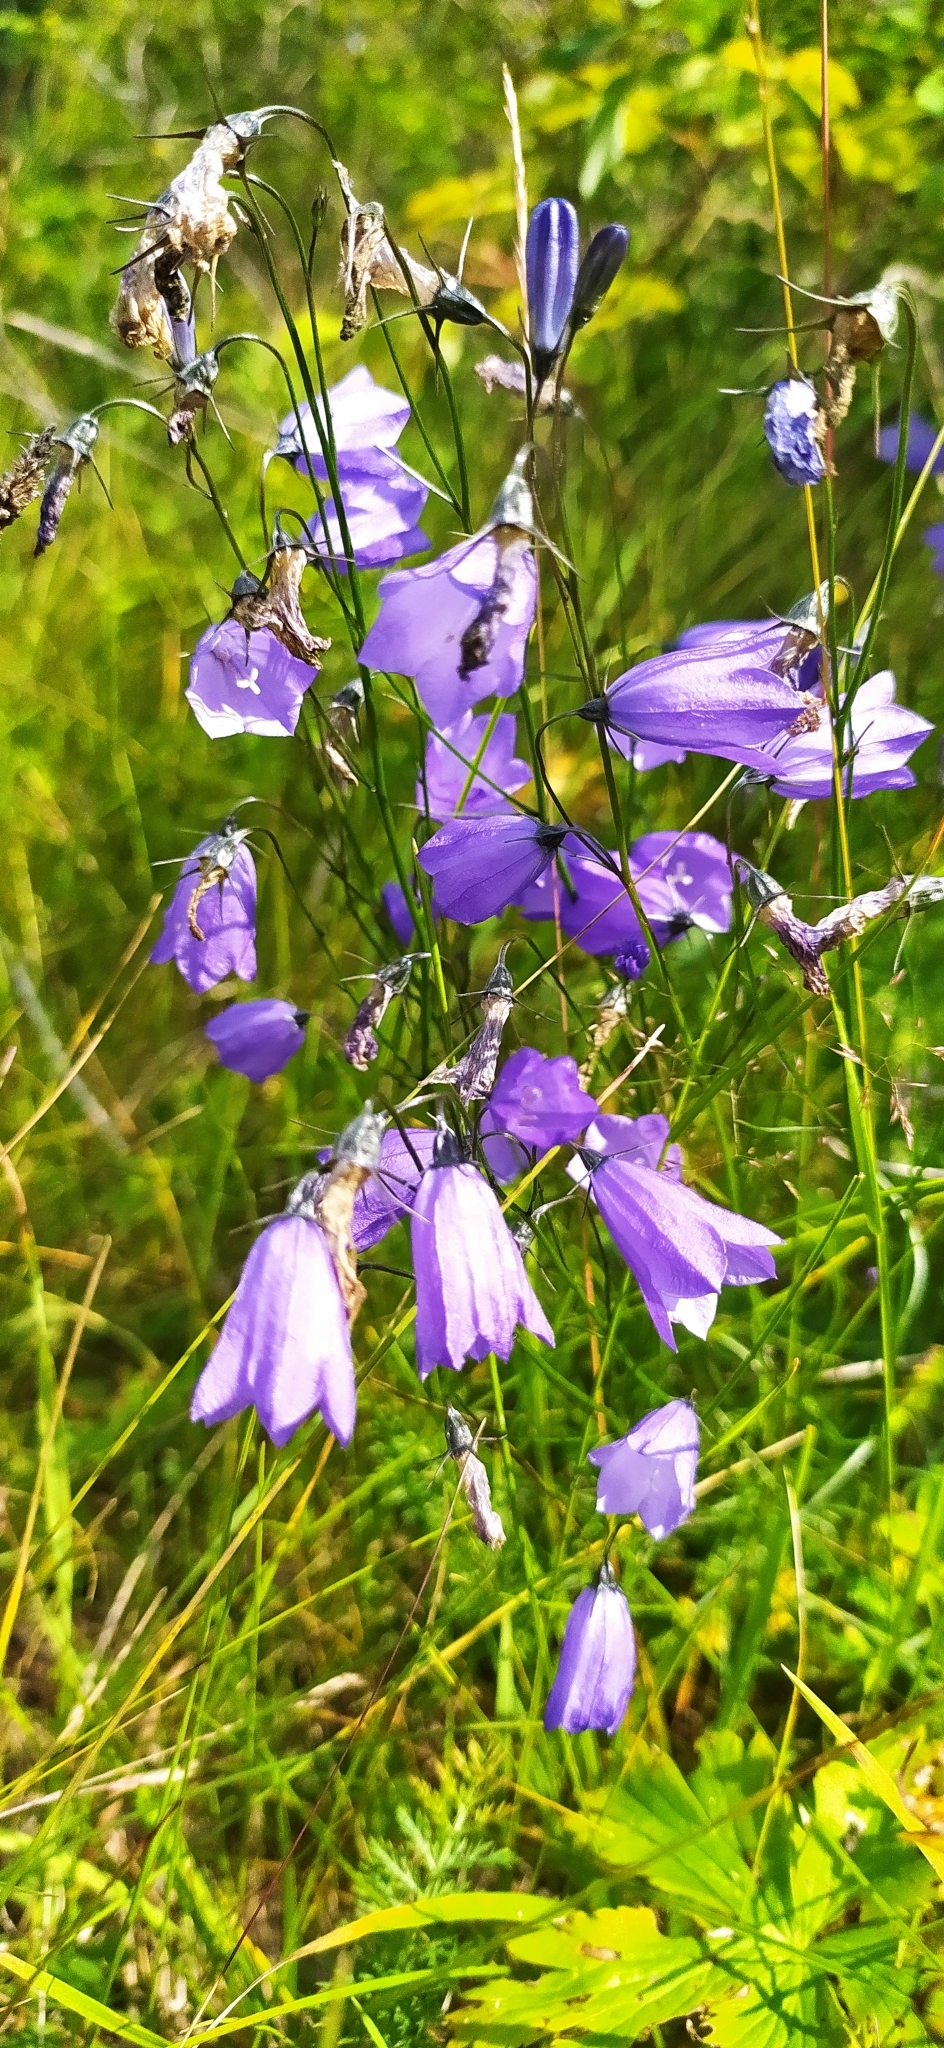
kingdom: Plantae
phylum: Tracheophyta
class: Magnoliopsida
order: Asterales
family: Campanulaceae
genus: Campanula
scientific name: Campanula rotundifolia
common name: Harebell
